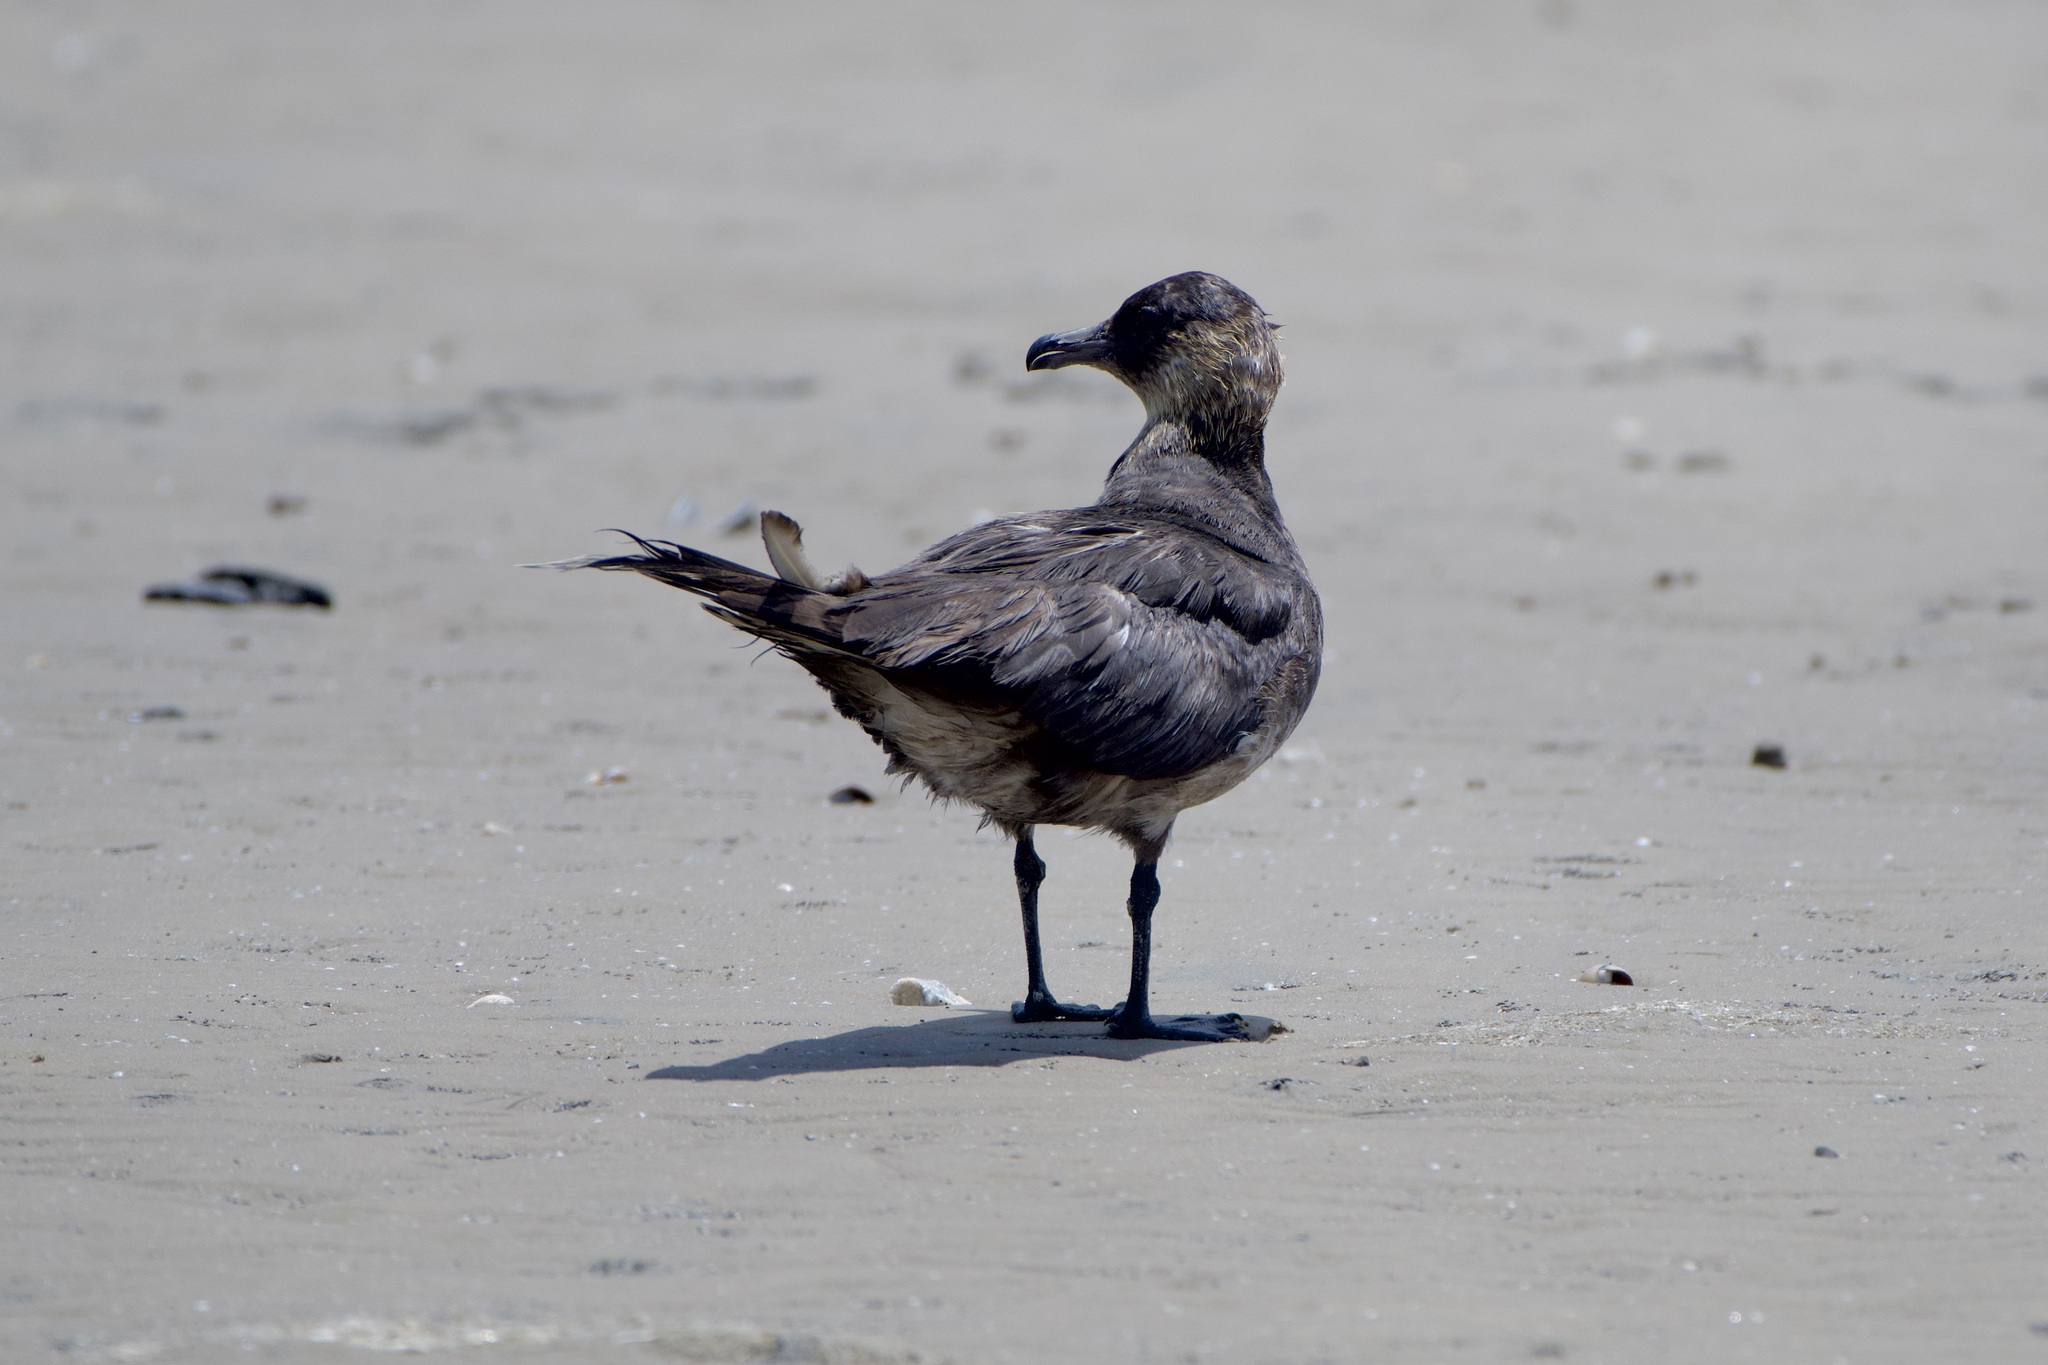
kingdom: Animalia
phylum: Chordata
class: Aves
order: Charadriiformes
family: Stercorariidae
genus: Stercorarius
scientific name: Stercorarius pomarinus
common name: Pomarine jaeger
